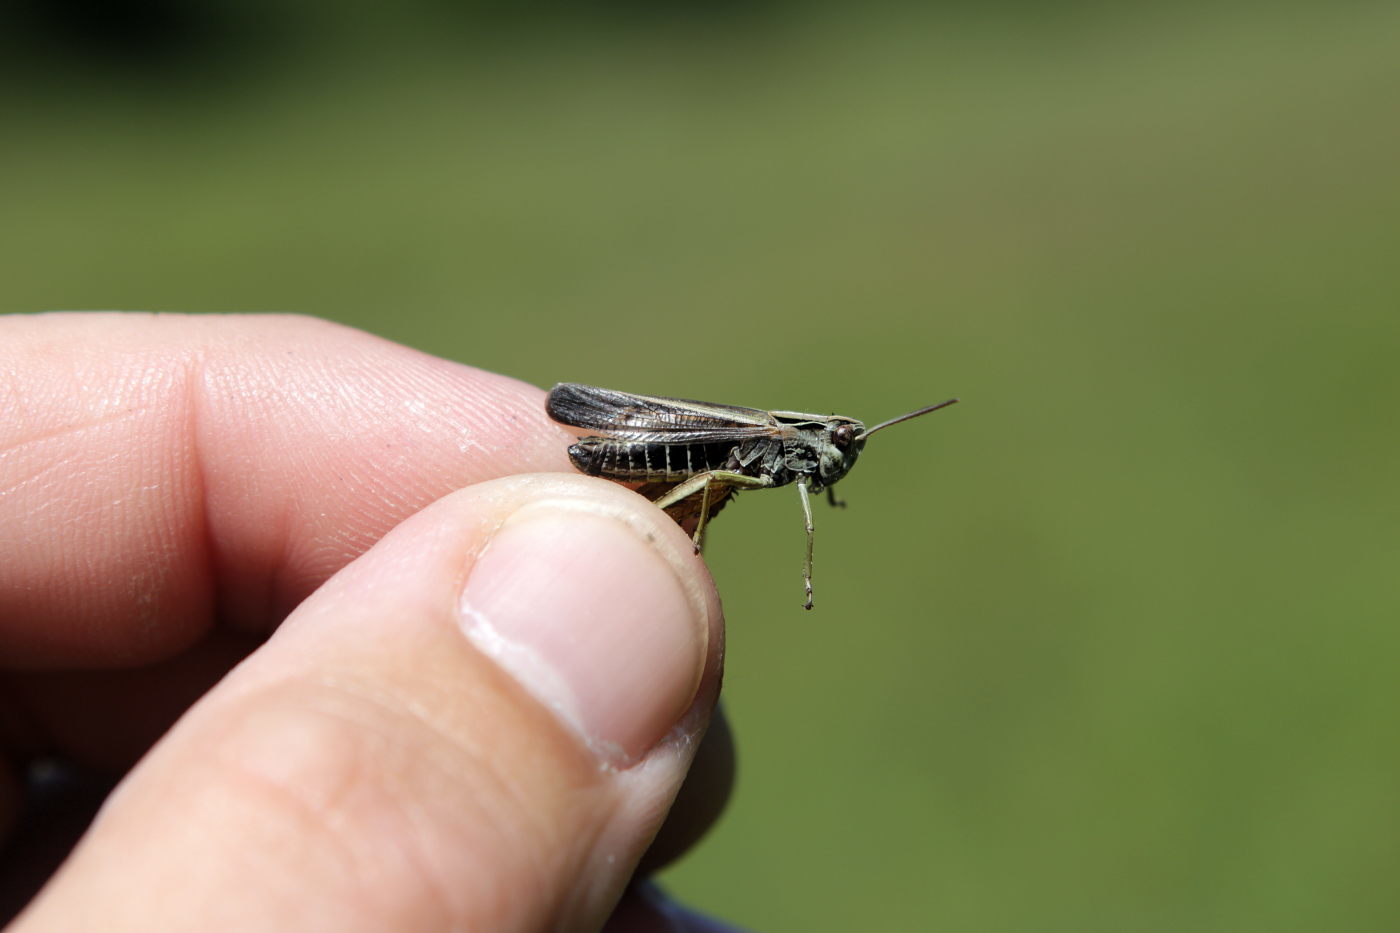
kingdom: Animalia
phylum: Arthropoda
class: Insecta
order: Orthoptera
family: Acrididae
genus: Omocestus
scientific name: Omocestus viridulus
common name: Common green grasshopper
